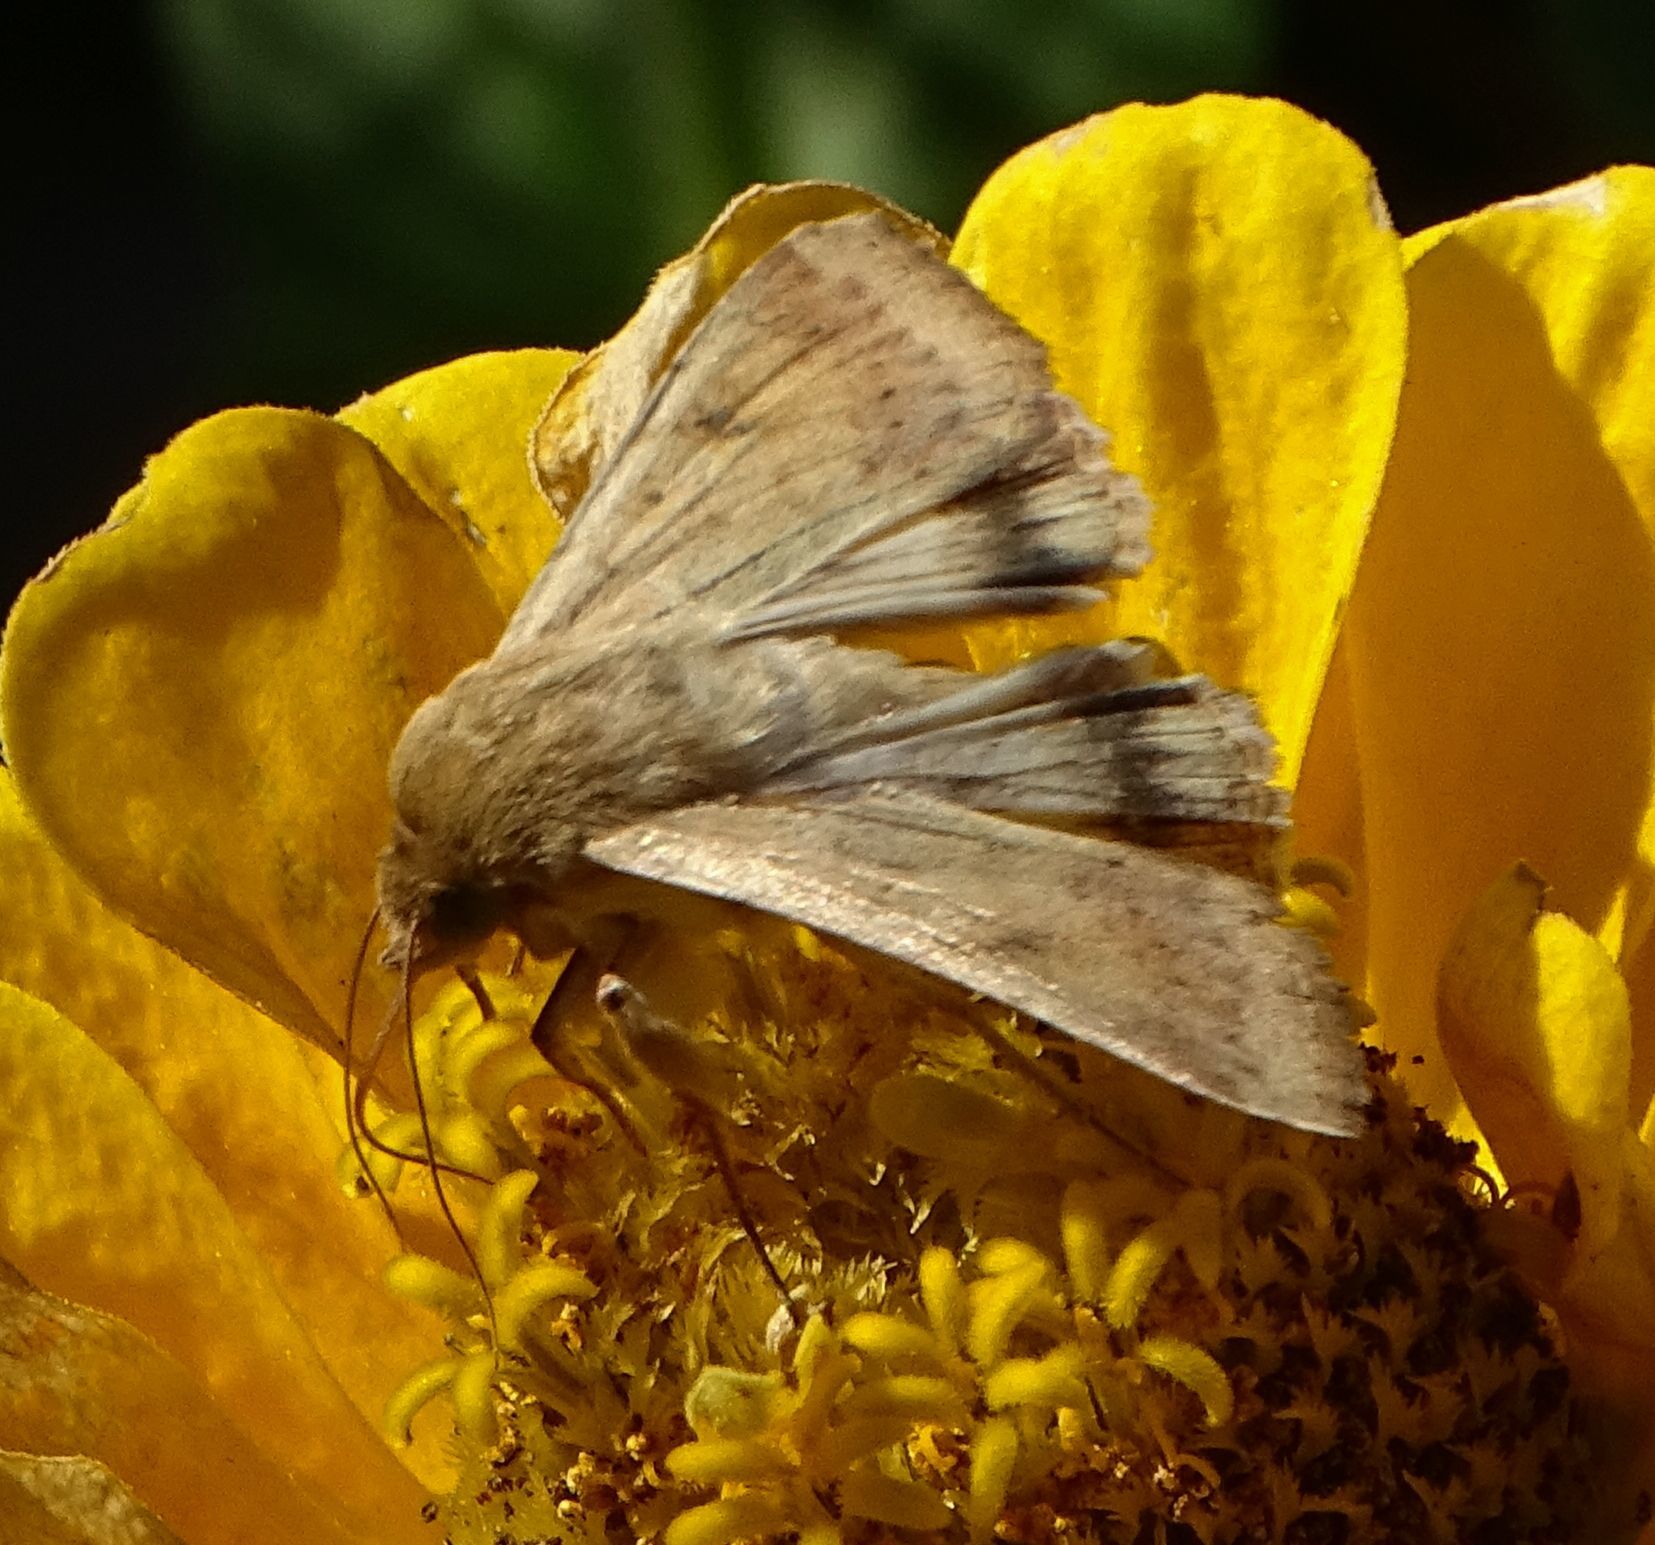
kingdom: Animalia
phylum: Arthropoda
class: Insecta
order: Lepidoptera
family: Noctuidae
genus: Helicoverpa
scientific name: Helicoverpa zea
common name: Bollworm
